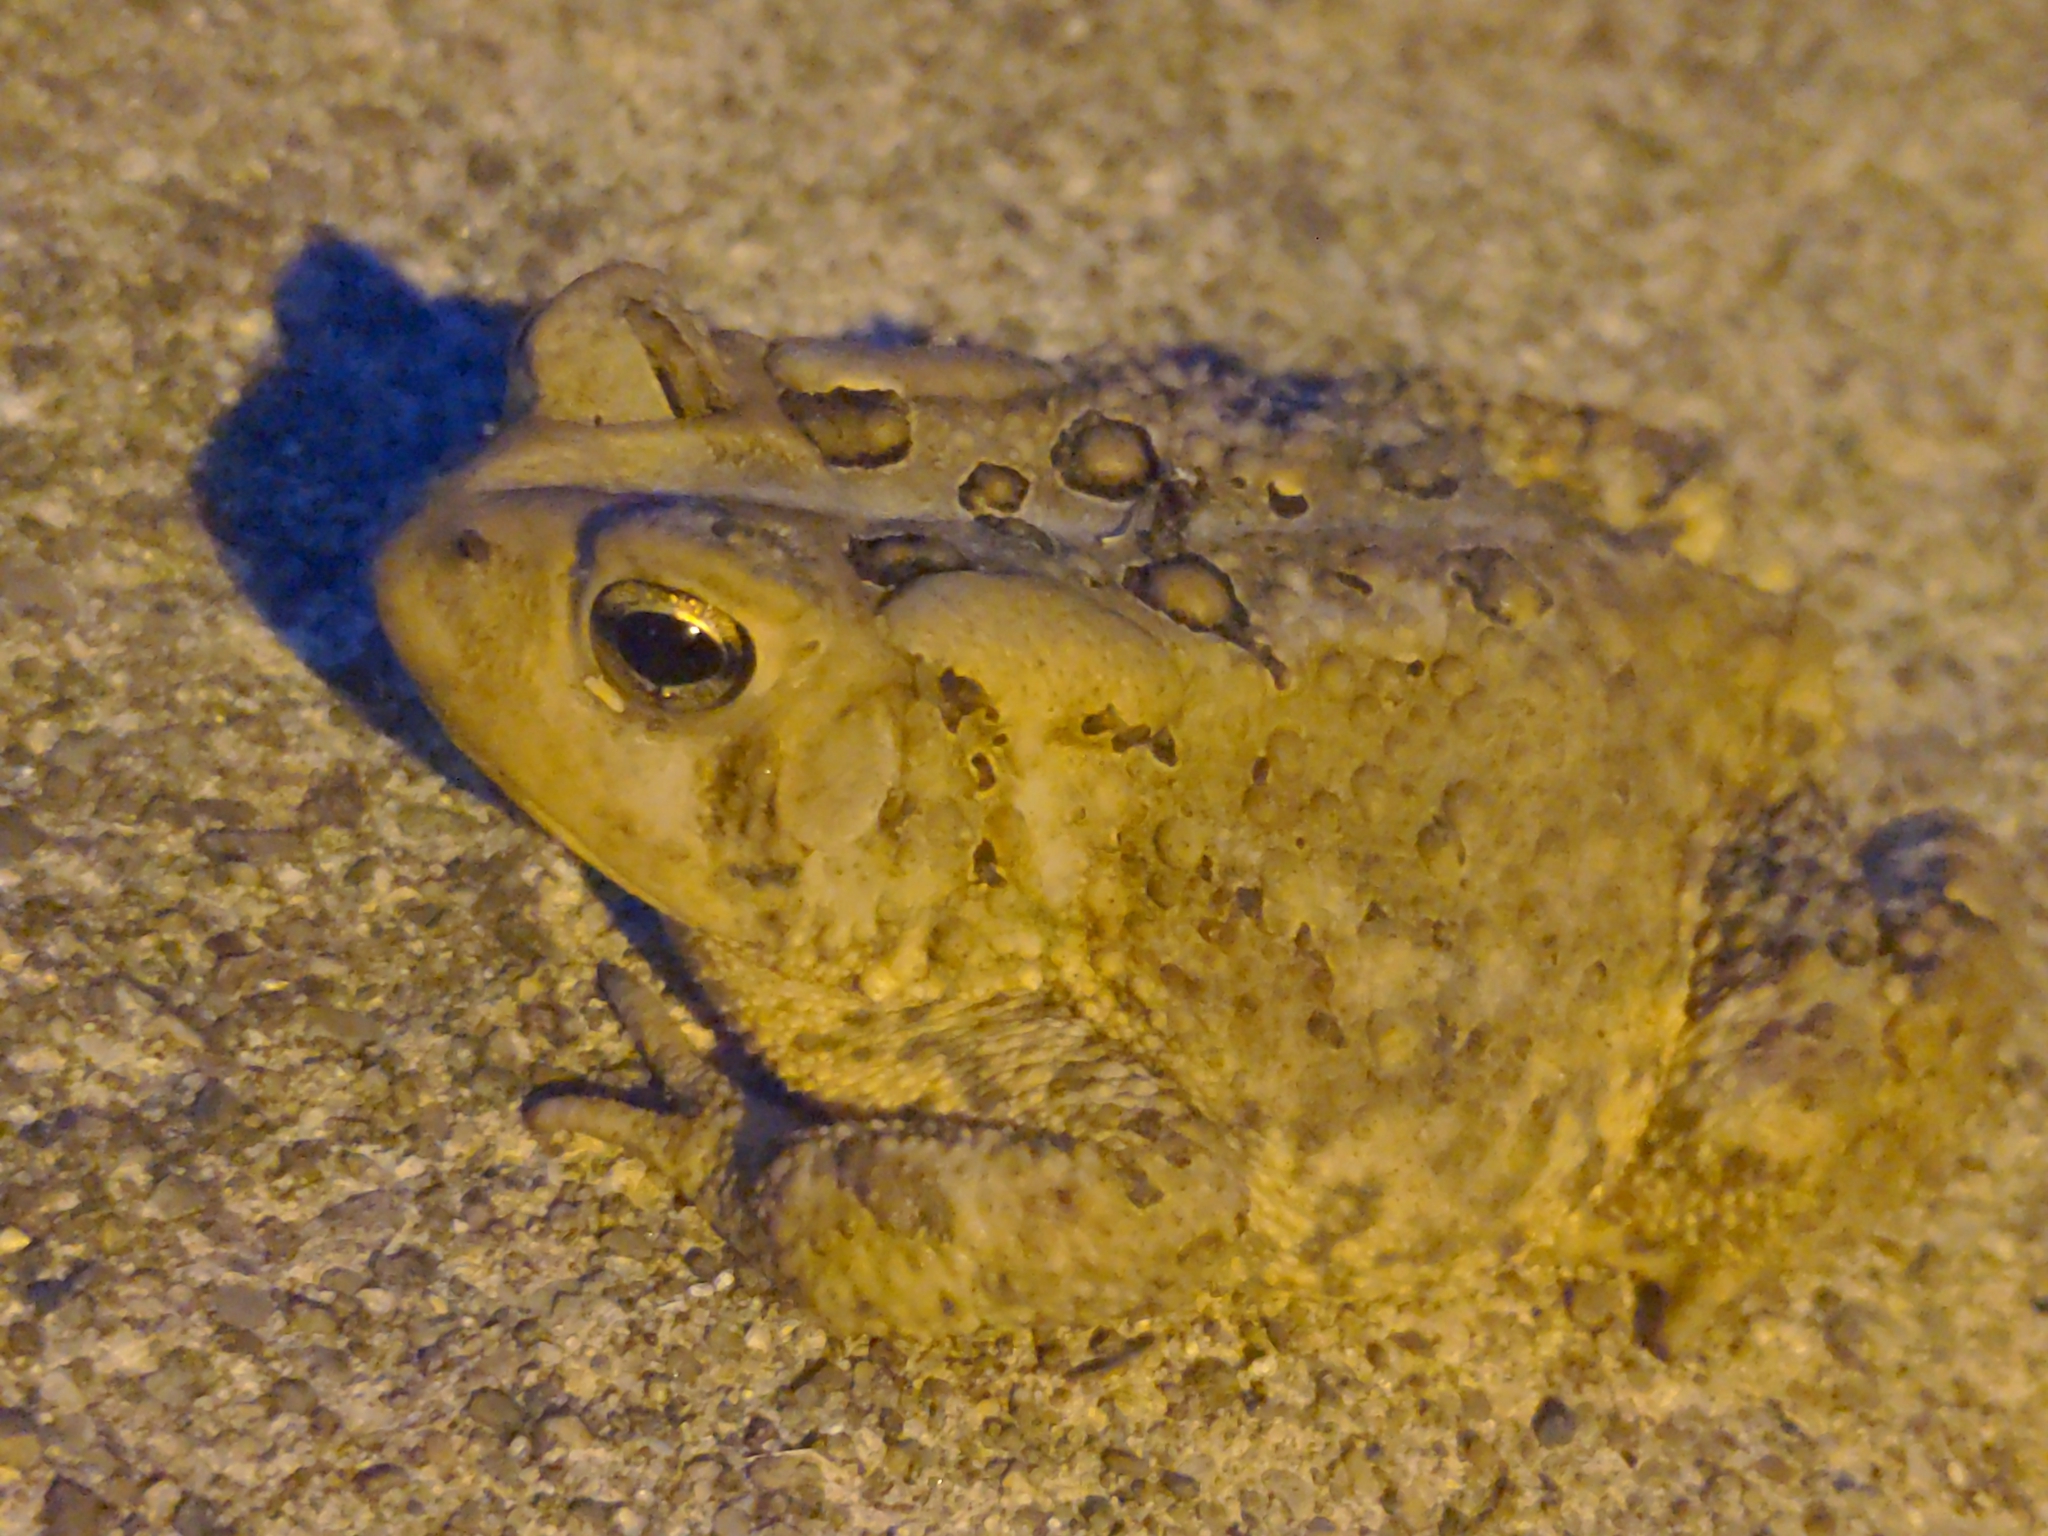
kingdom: Animalia
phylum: Chordata
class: Amphibia
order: Anura
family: Bufonidae
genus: Anaxyrus
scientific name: Anaxyrus americanus
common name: American toad
